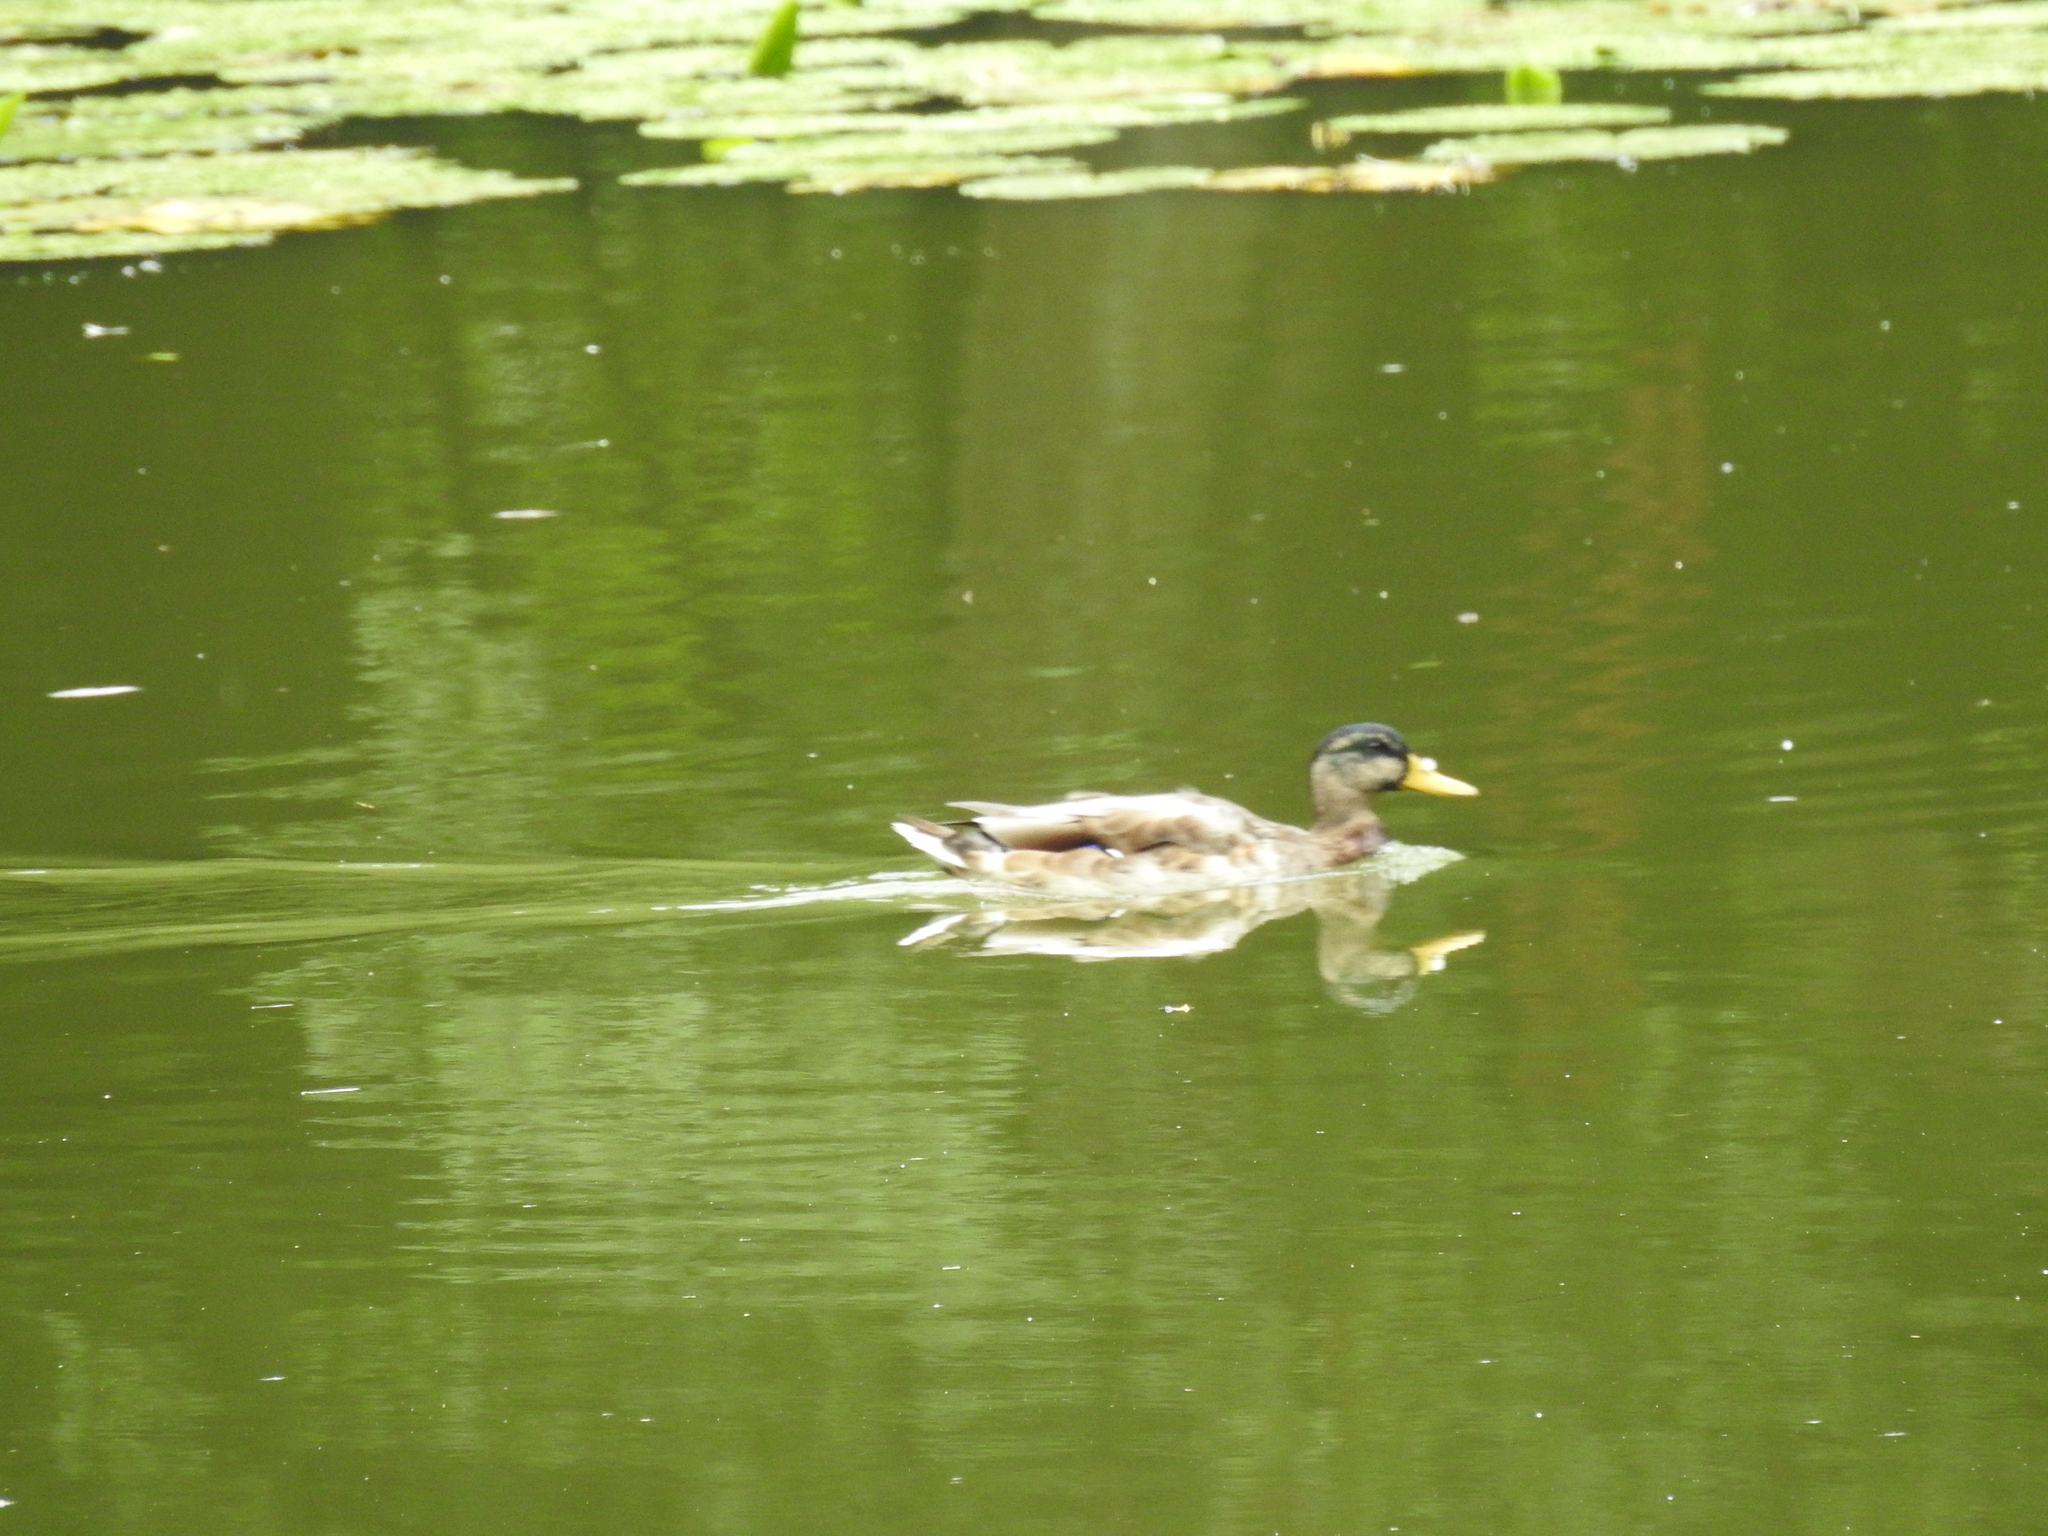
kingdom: Animalia
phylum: Chordata
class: Aves
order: Anseriformes
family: Anatidae
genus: Anas
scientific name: Anas platyrhynchos
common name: Mallard
